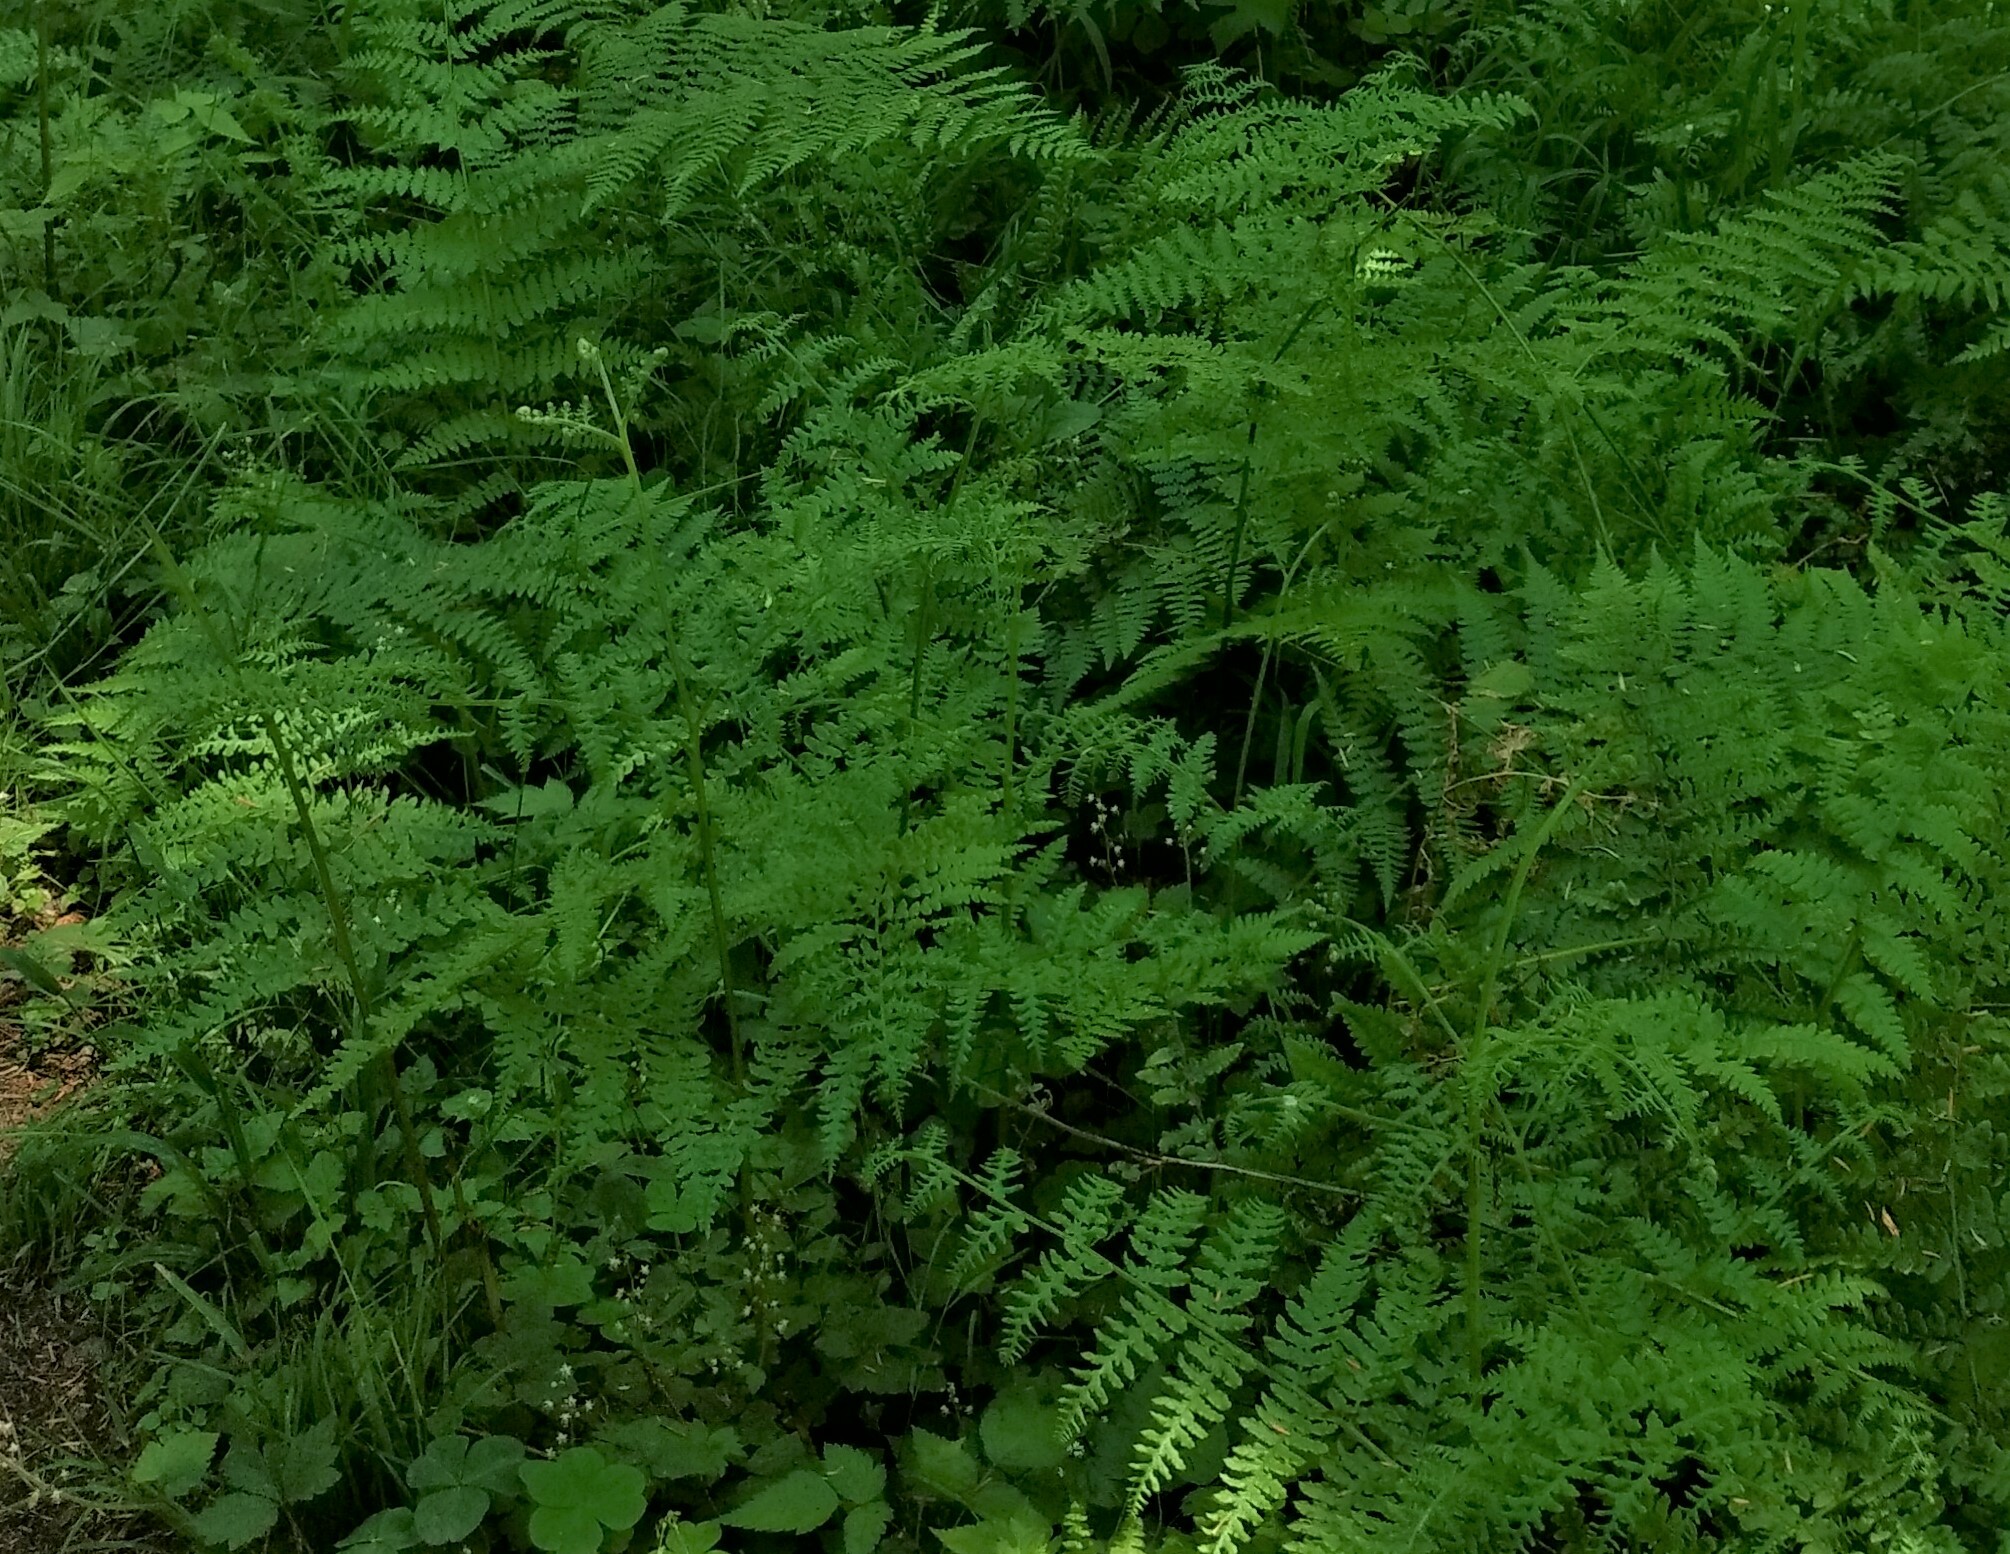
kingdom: Plantae
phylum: Tracheophyta
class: Polypodiopsida
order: Polypodiales
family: Dennstaedtiaceae
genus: Pteridium
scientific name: Pteridium aquilinum
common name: Bracken
